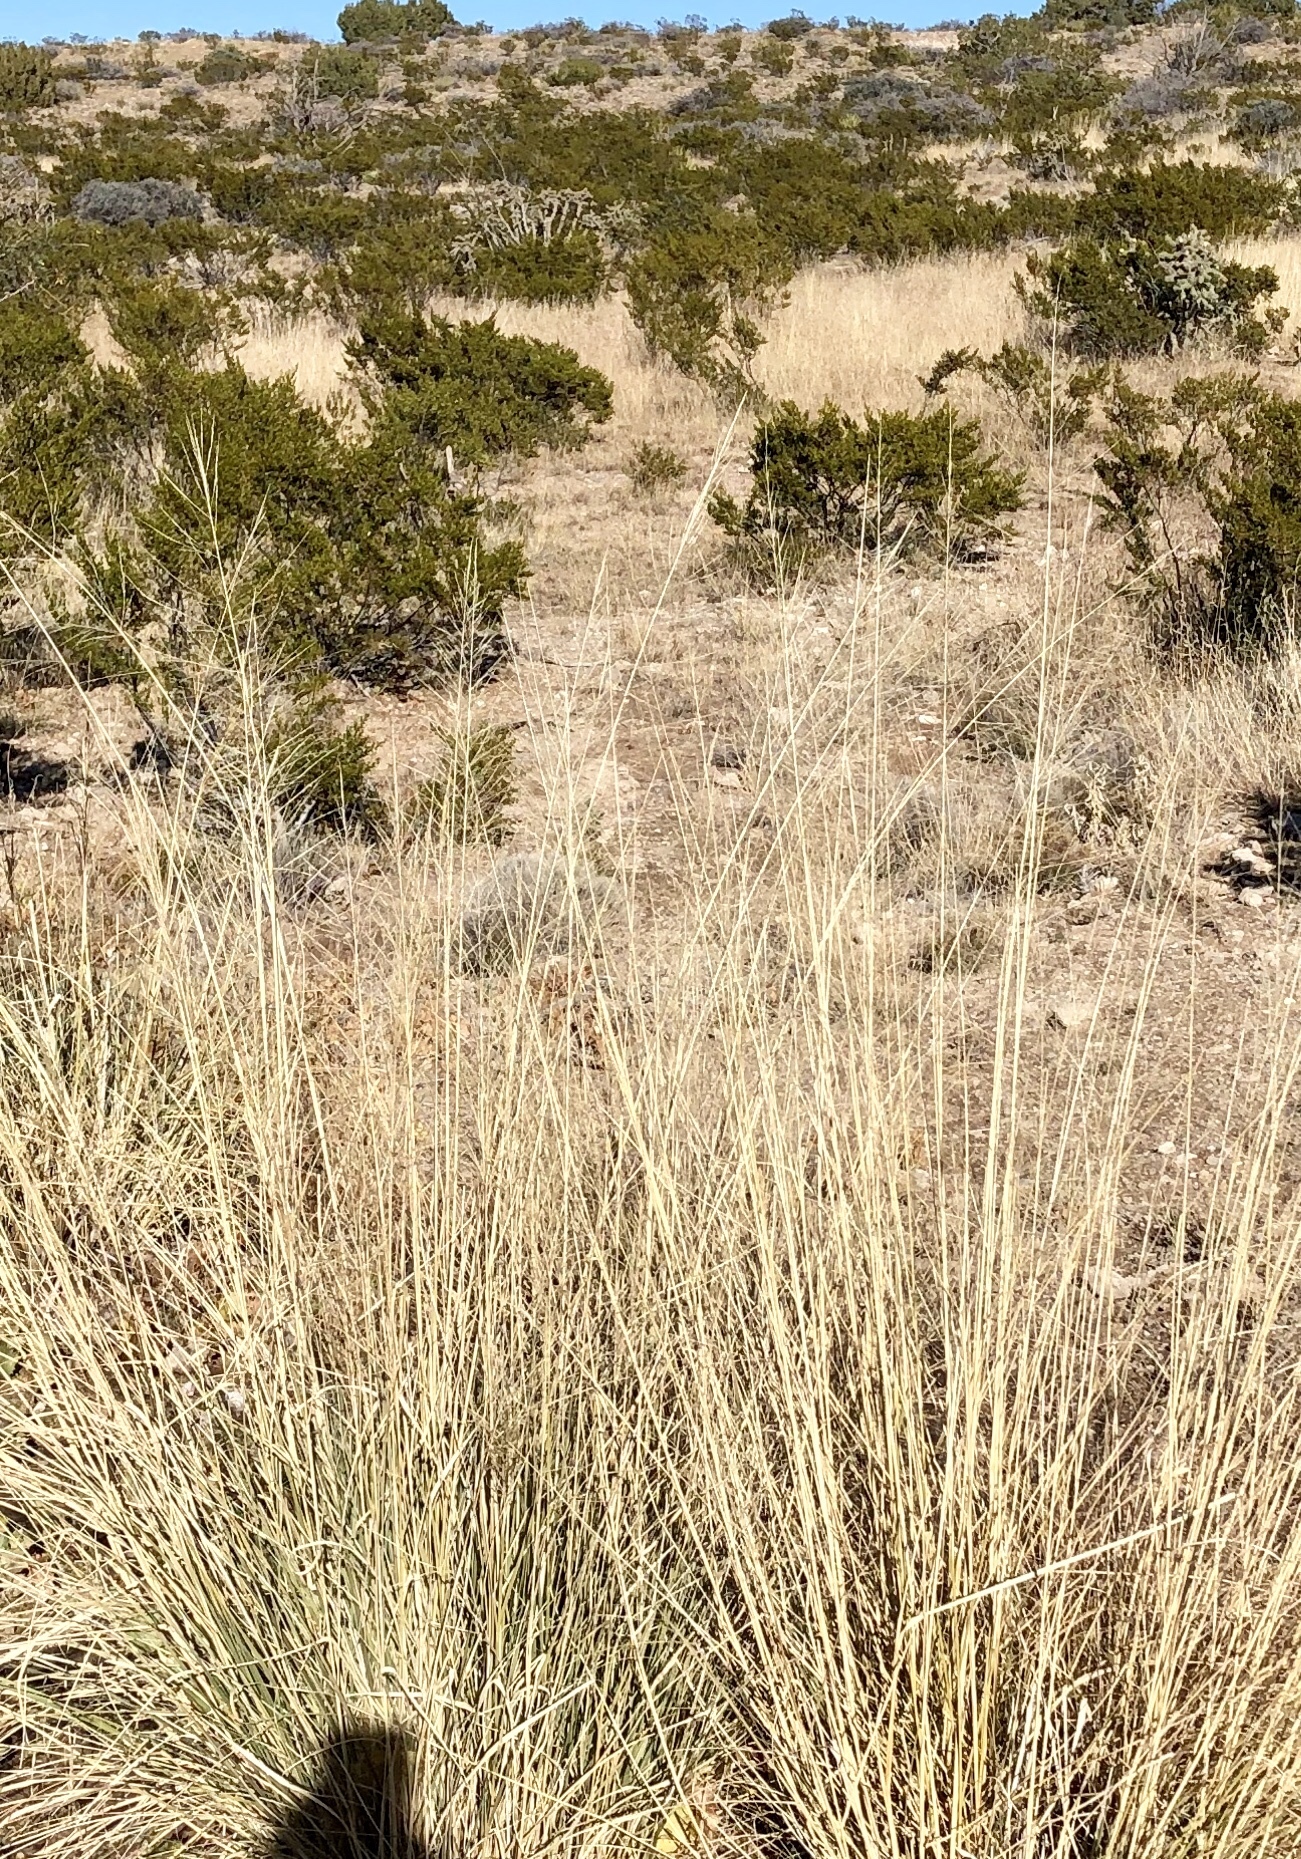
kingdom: Plantae
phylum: Tracheophyta
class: Liliopsida
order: Poales
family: Poaceae
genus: Sporobolus
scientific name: Sporobolus wrightii
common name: Big alkali sacaton
